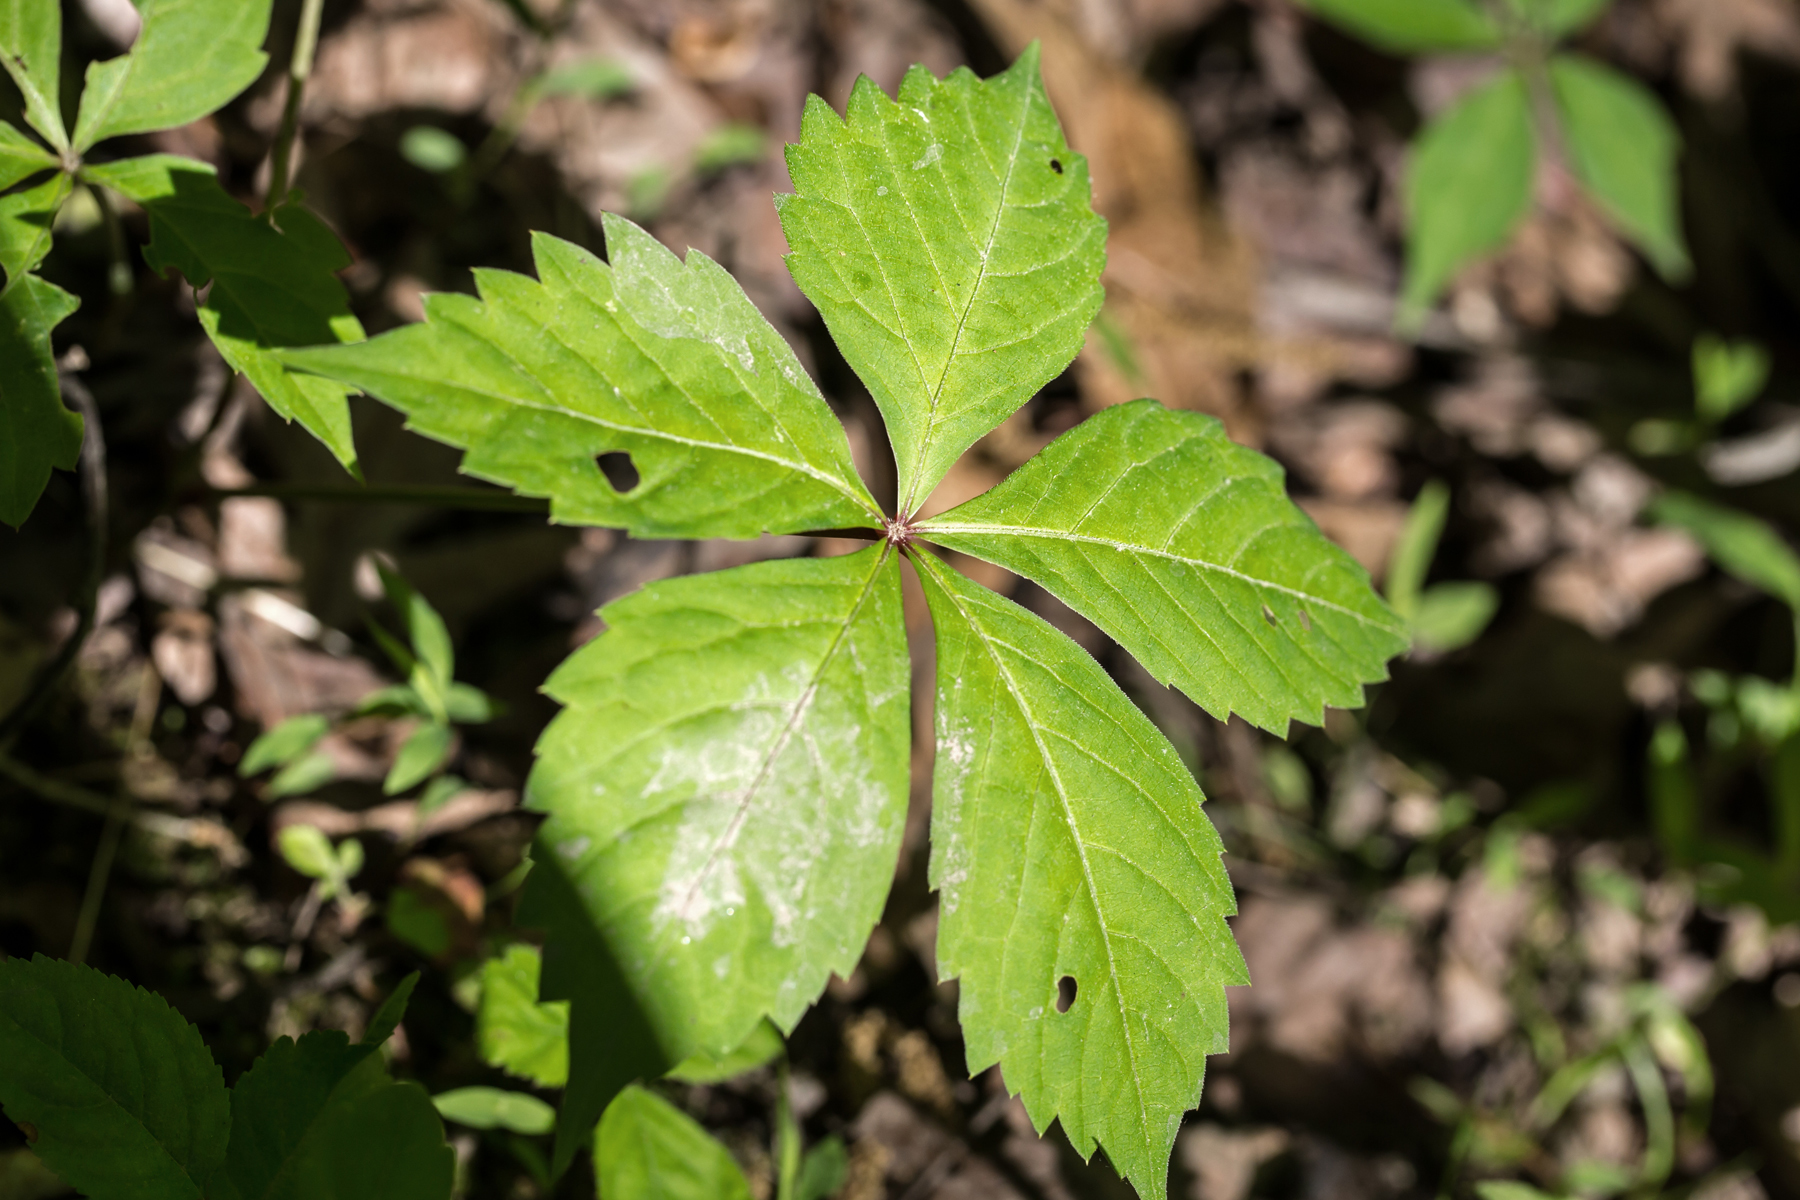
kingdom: Plantae
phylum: Tracheophyta
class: Magnoliopsida
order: Vitales
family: Vitaceae
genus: Parthenocissus
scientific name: Parthenocissus quinquefolia
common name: Virginia-creeper
